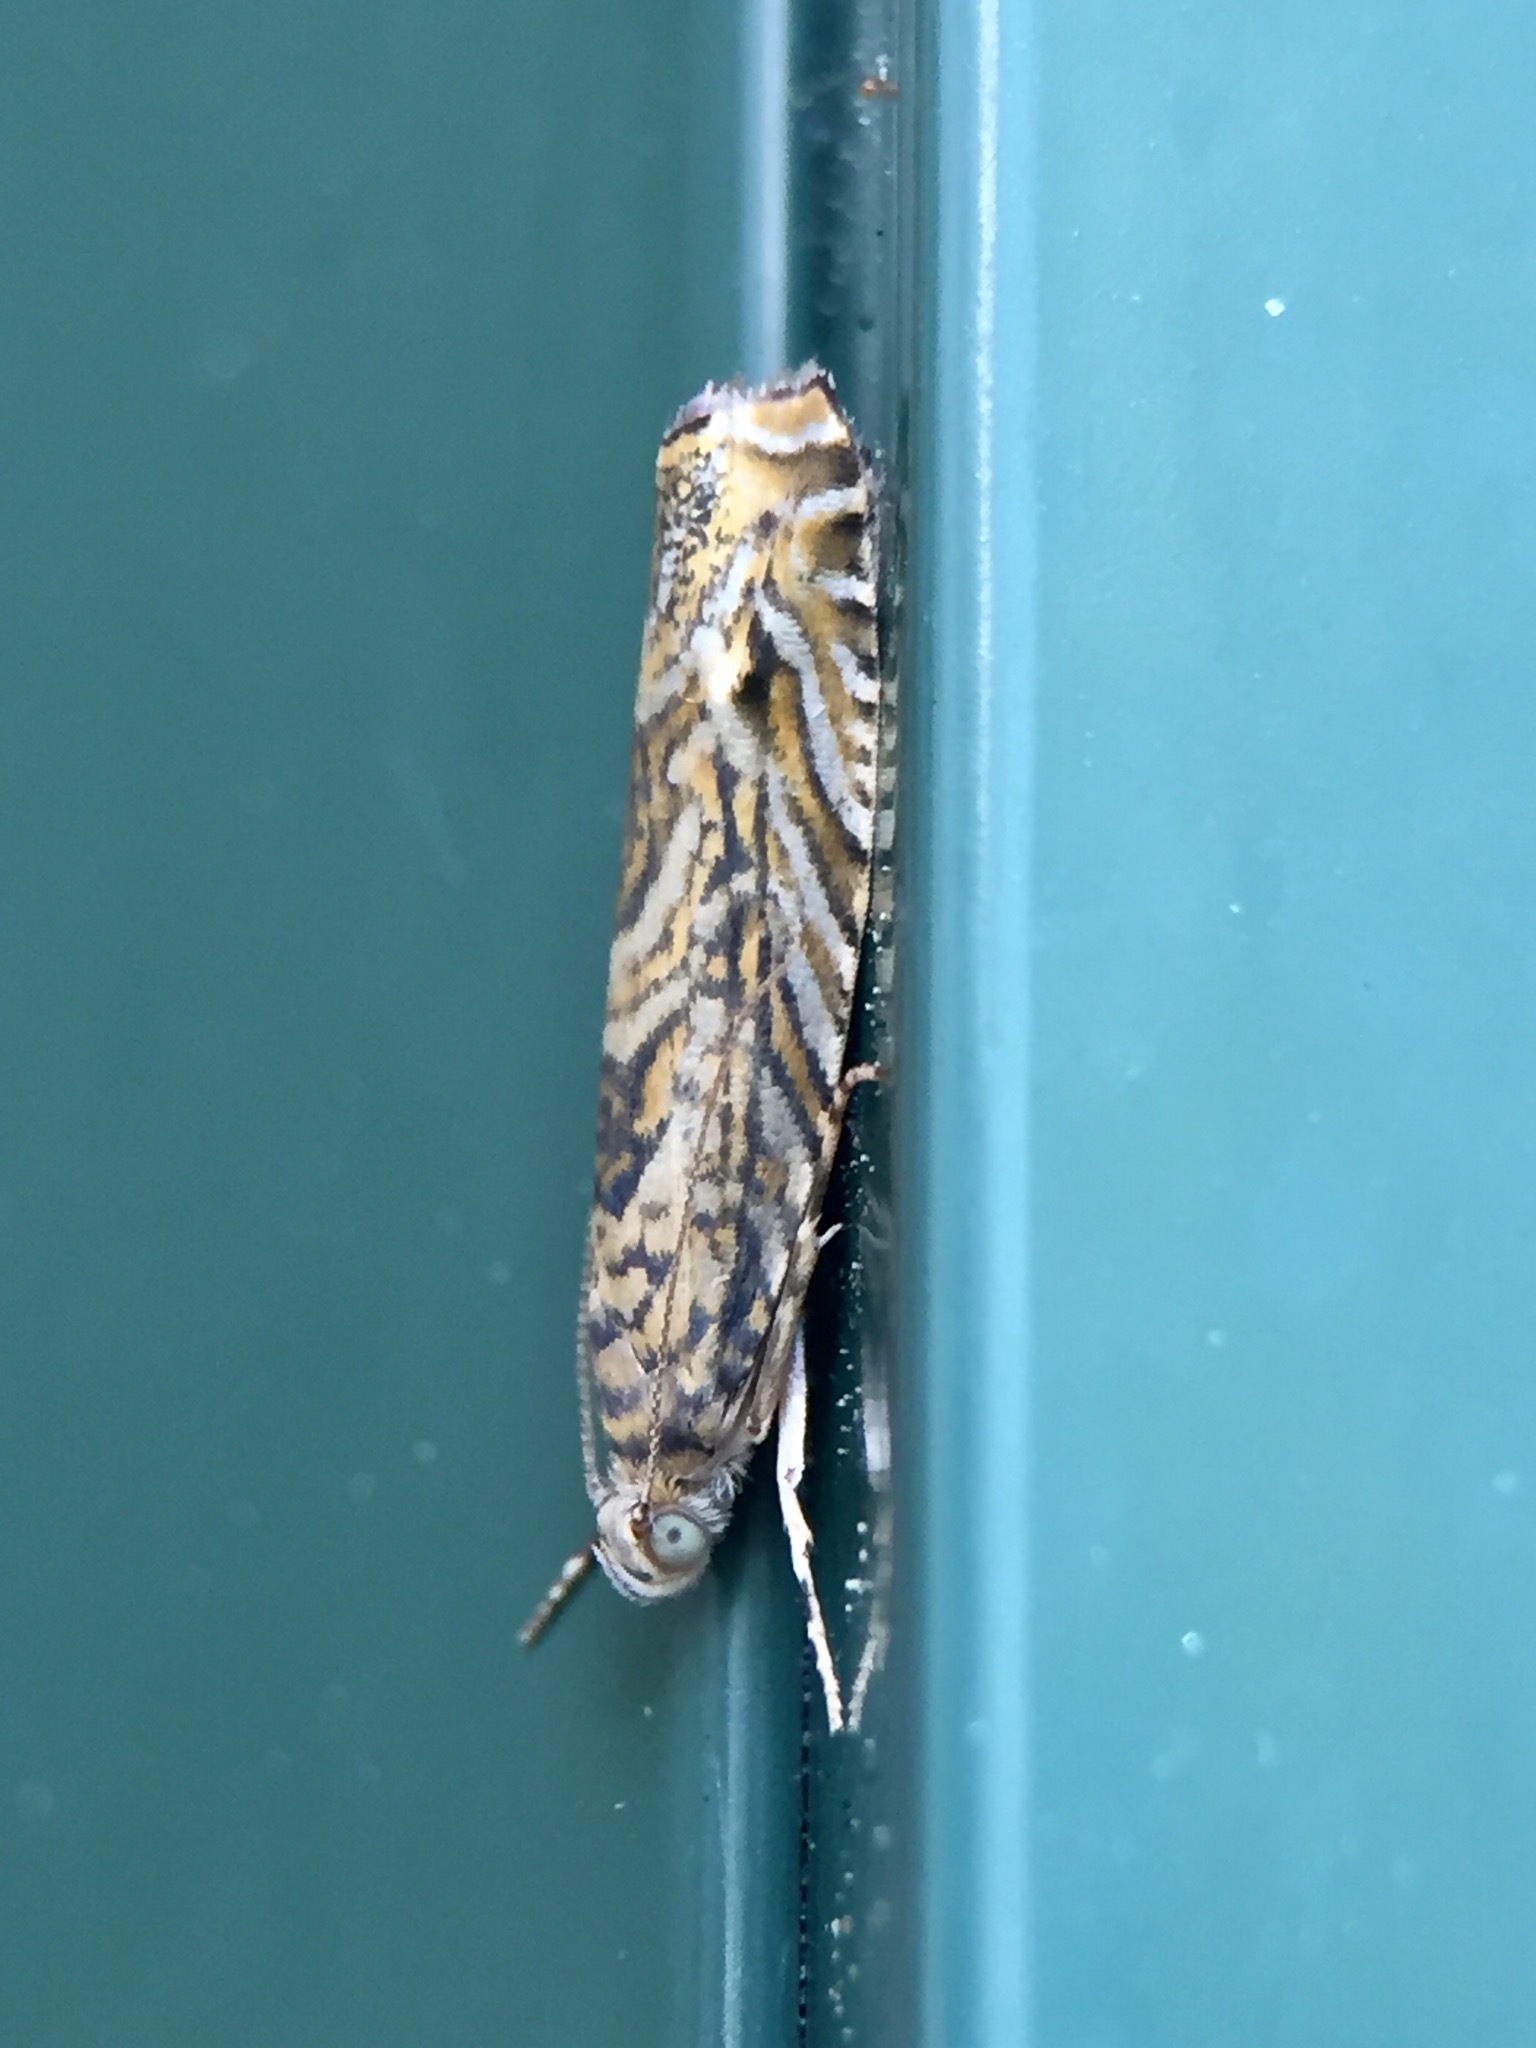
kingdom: Animalia
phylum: Arthropoda
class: Insecta
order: Lepidoptera
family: Plutellidae
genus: Doxophyrtis
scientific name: Doxophyrtis hydrocosma
